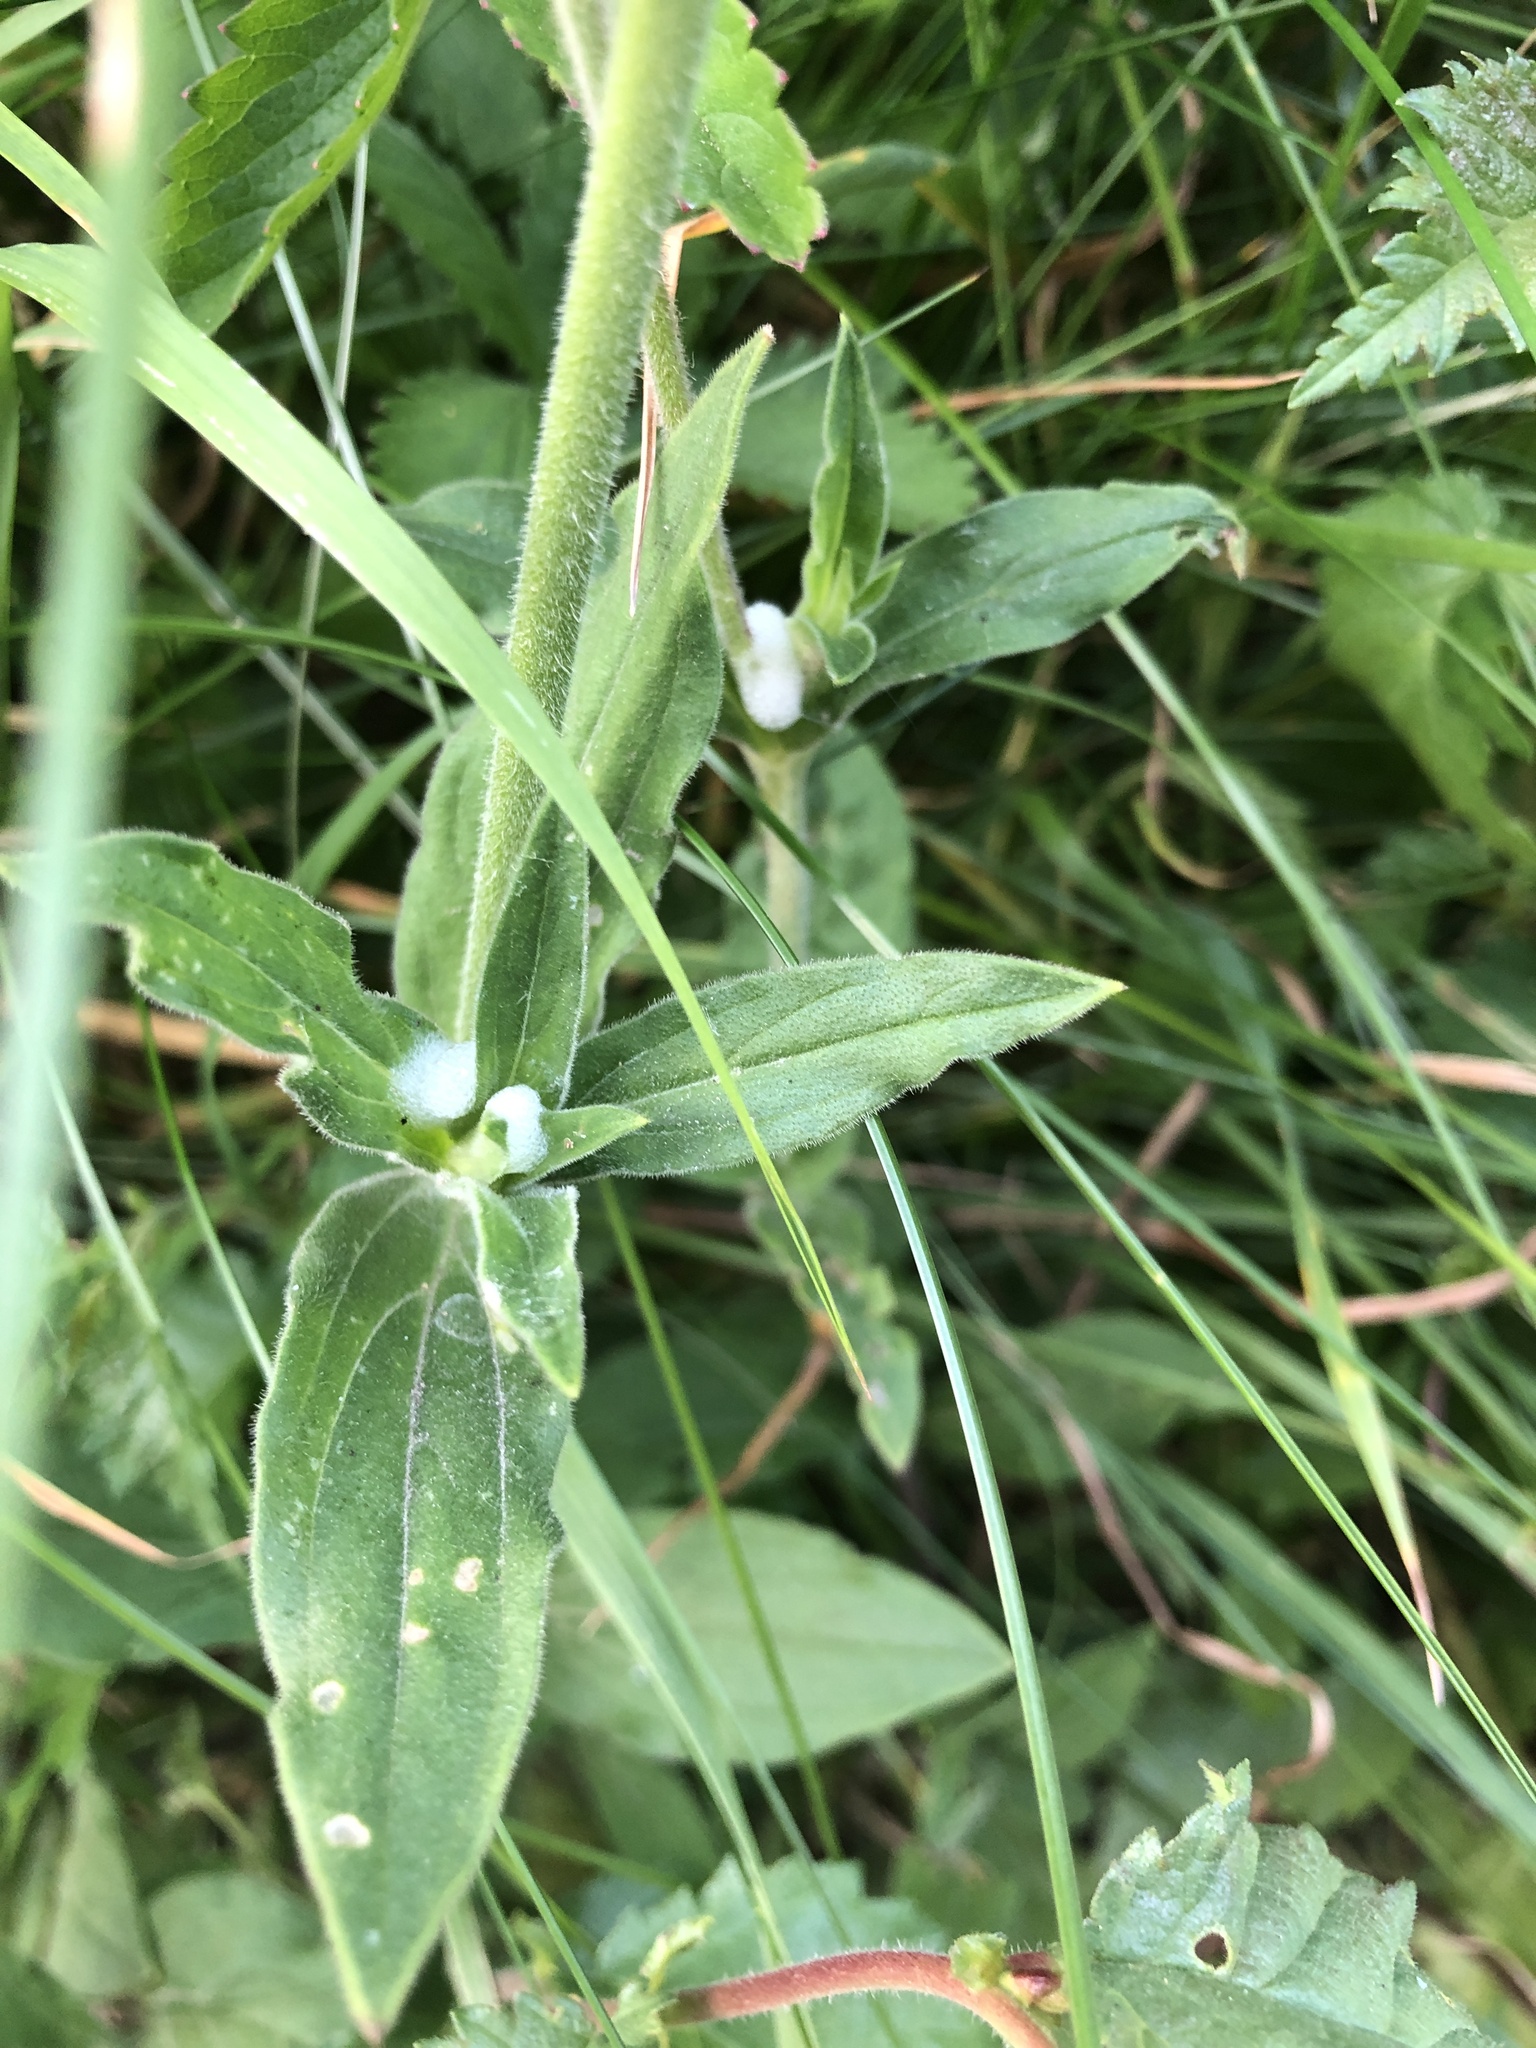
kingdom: Plantae
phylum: Tracheophyta
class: Magnoliopsida
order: Caryophyllales
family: Caryophyllaceae
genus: Silene
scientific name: Silene latifolia
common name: White campion
